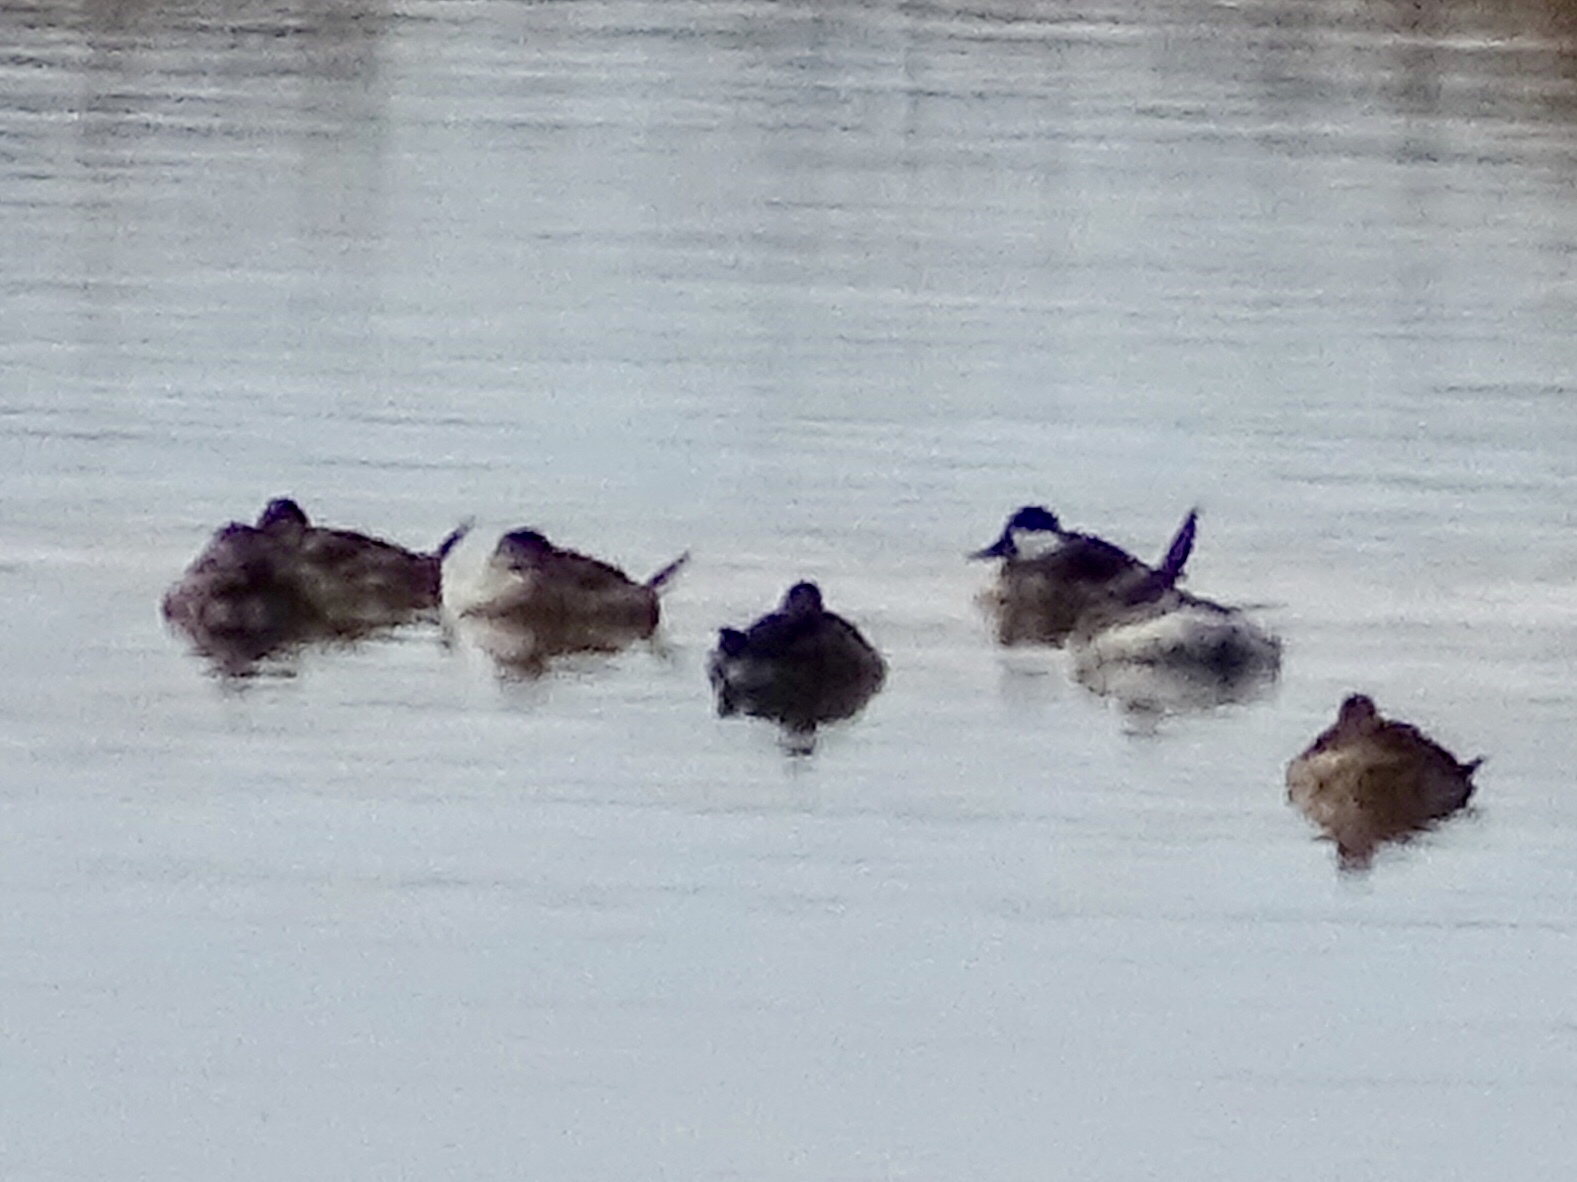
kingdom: Animalia
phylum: Chordata
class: Aves
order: Anseriformes
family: Anatidae
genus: Oxyura
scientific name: Oxyura jamaicensis
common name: Ruddy duck
